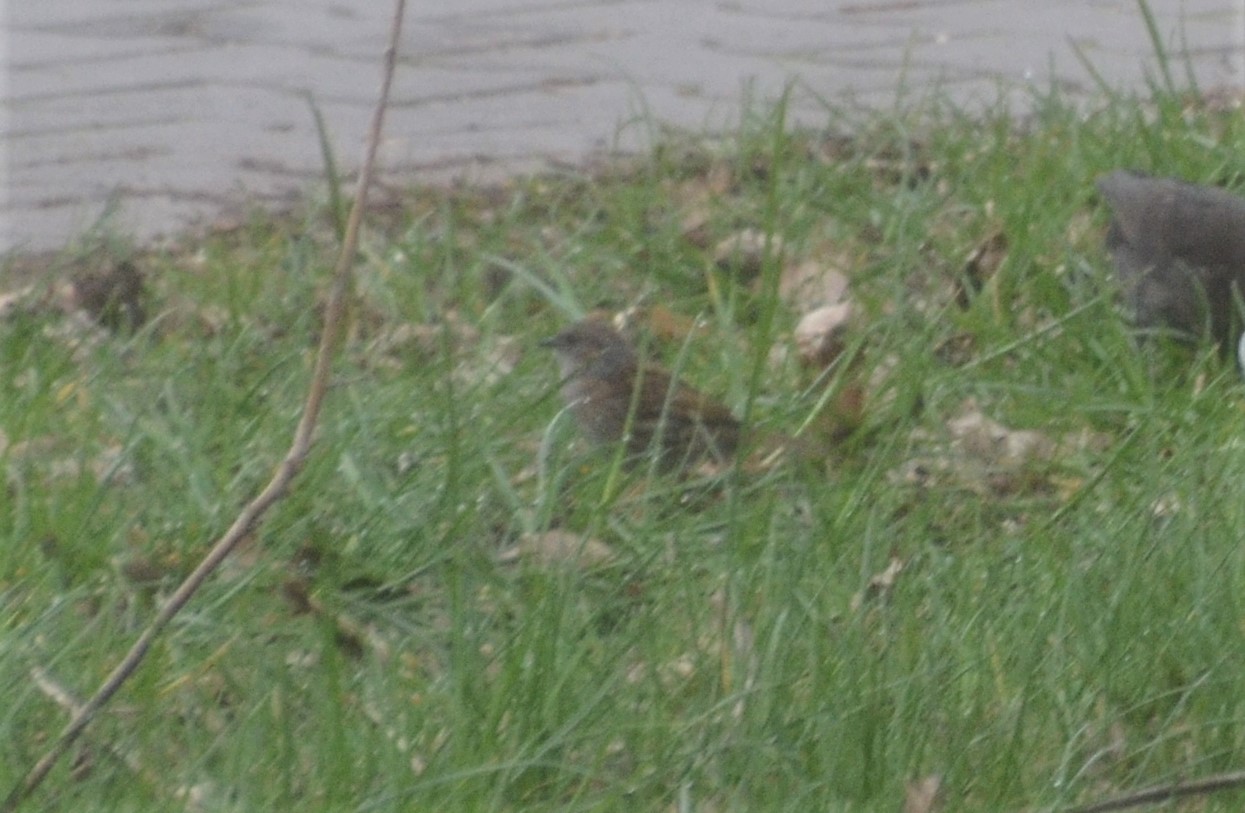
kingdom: Animalia
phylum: Chordata
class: Aves
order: Passeriformes
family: Prunellidae
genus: Prunella
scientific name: Prunella modularis
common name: Dunnock
